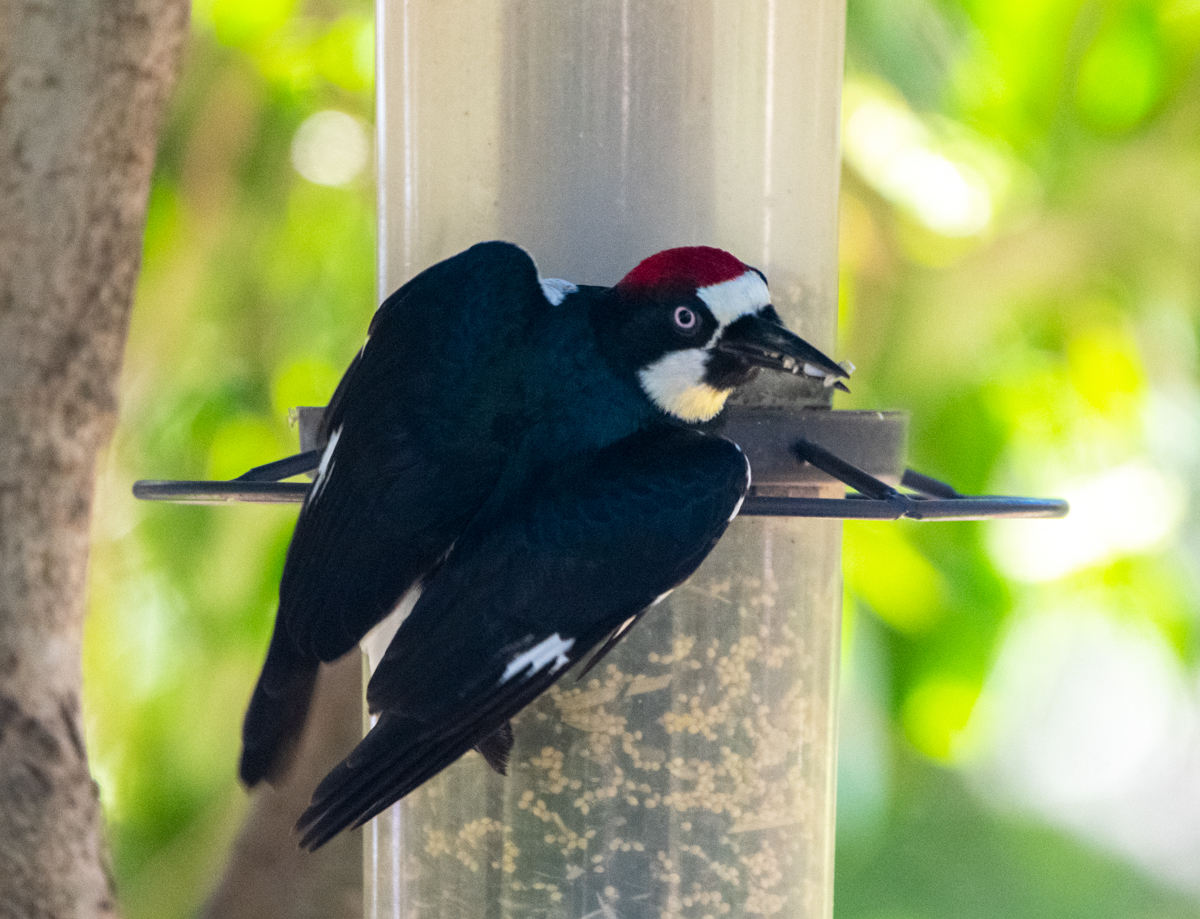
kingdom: Animalia
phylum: Chordata
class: Aves
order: Piciformes
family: Picidae
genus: Melanerpes
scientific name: Melanerpes formicivorus
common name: Acorn woodpecker
